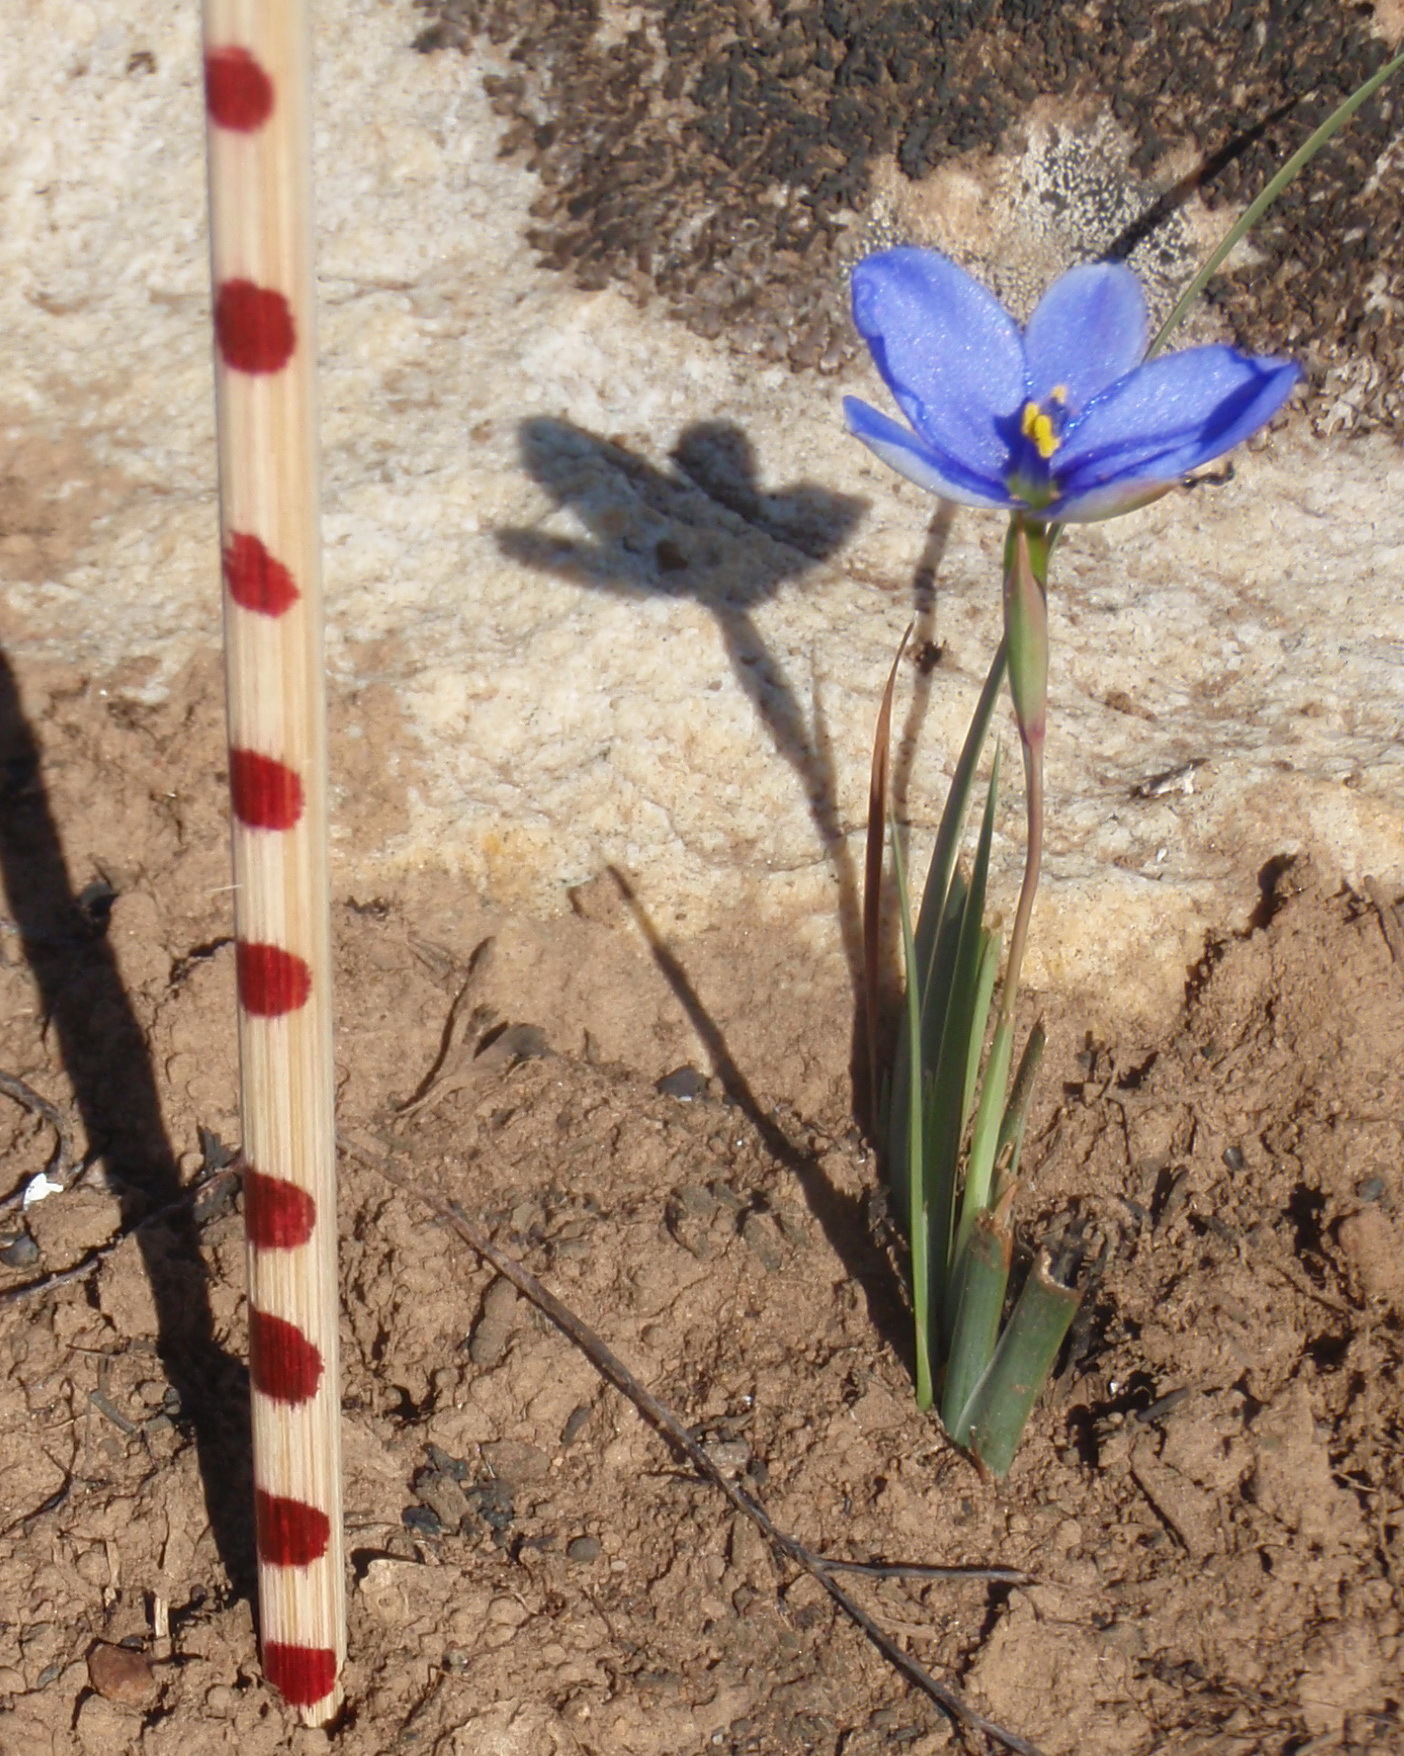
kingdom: Plantae
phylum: Tracheophyta
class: Liliopsida
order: Asparagales
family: Iridaceae
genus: Aristea
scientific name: Aristea nana
